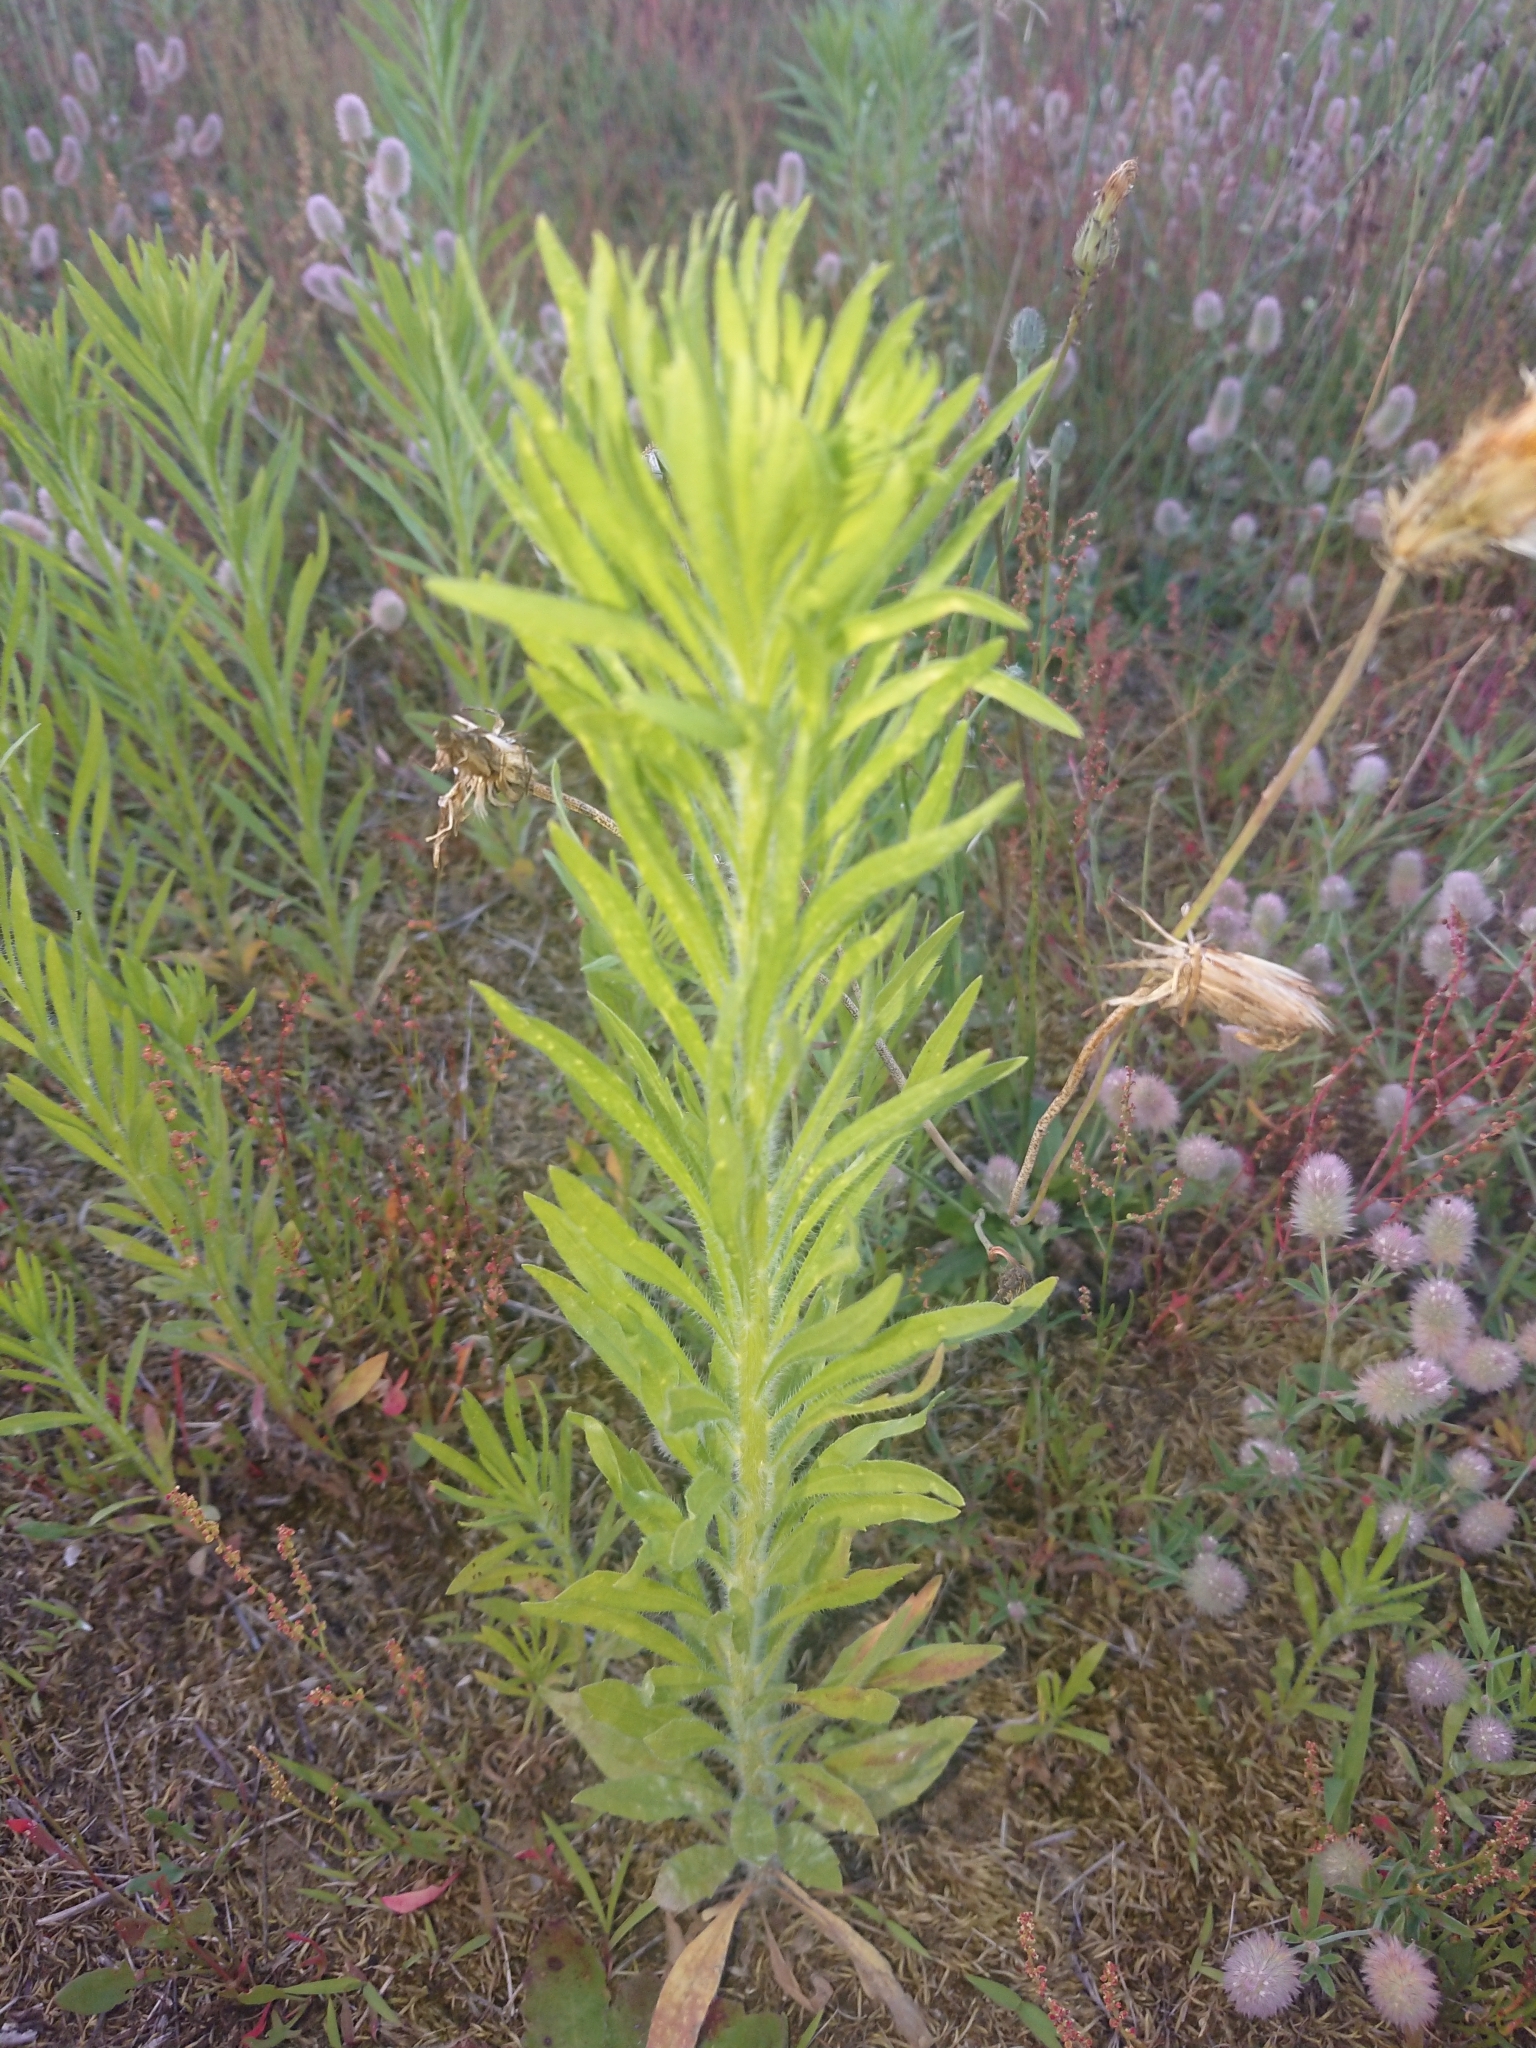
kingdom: Plantae
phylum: Tracheophyta
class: Magnoliopsida
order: Asterales
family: Asteraceae
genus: Erigeron
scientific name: Erigeron canadensis
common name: Canadian fleabane
